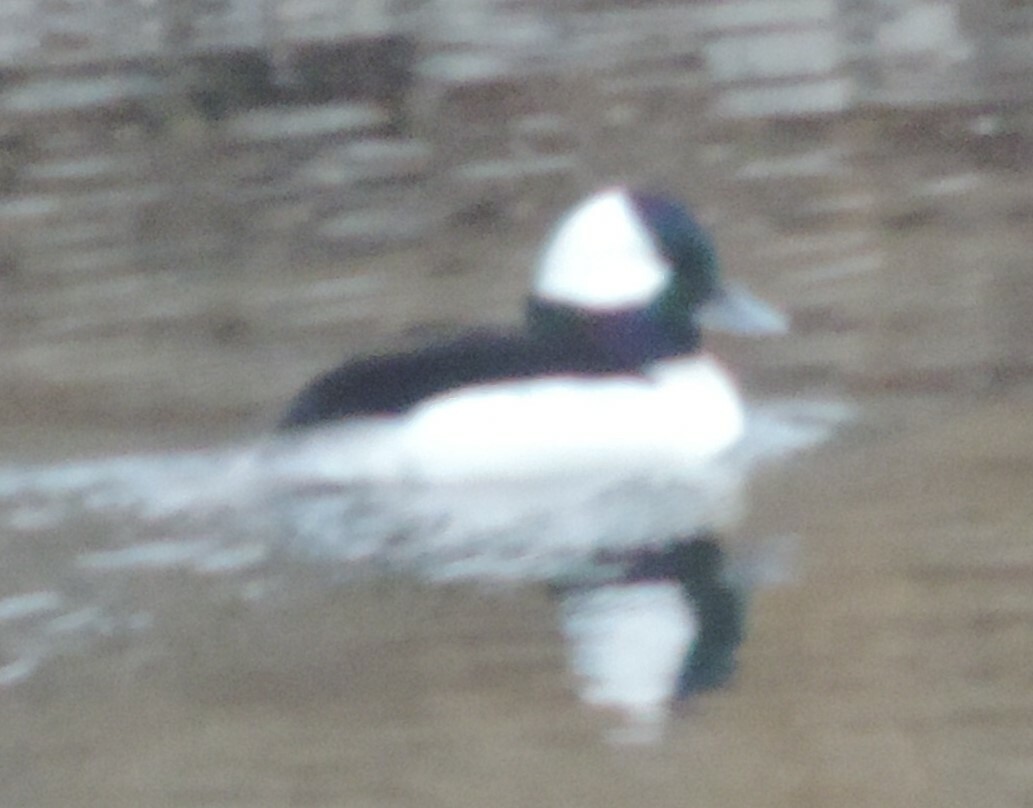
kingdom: Animalia
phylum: Chordata
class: Aves
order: Anseriformes
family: Anatidae
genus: Bucephala
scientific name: Bucephala albeola
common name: Bufflehead
